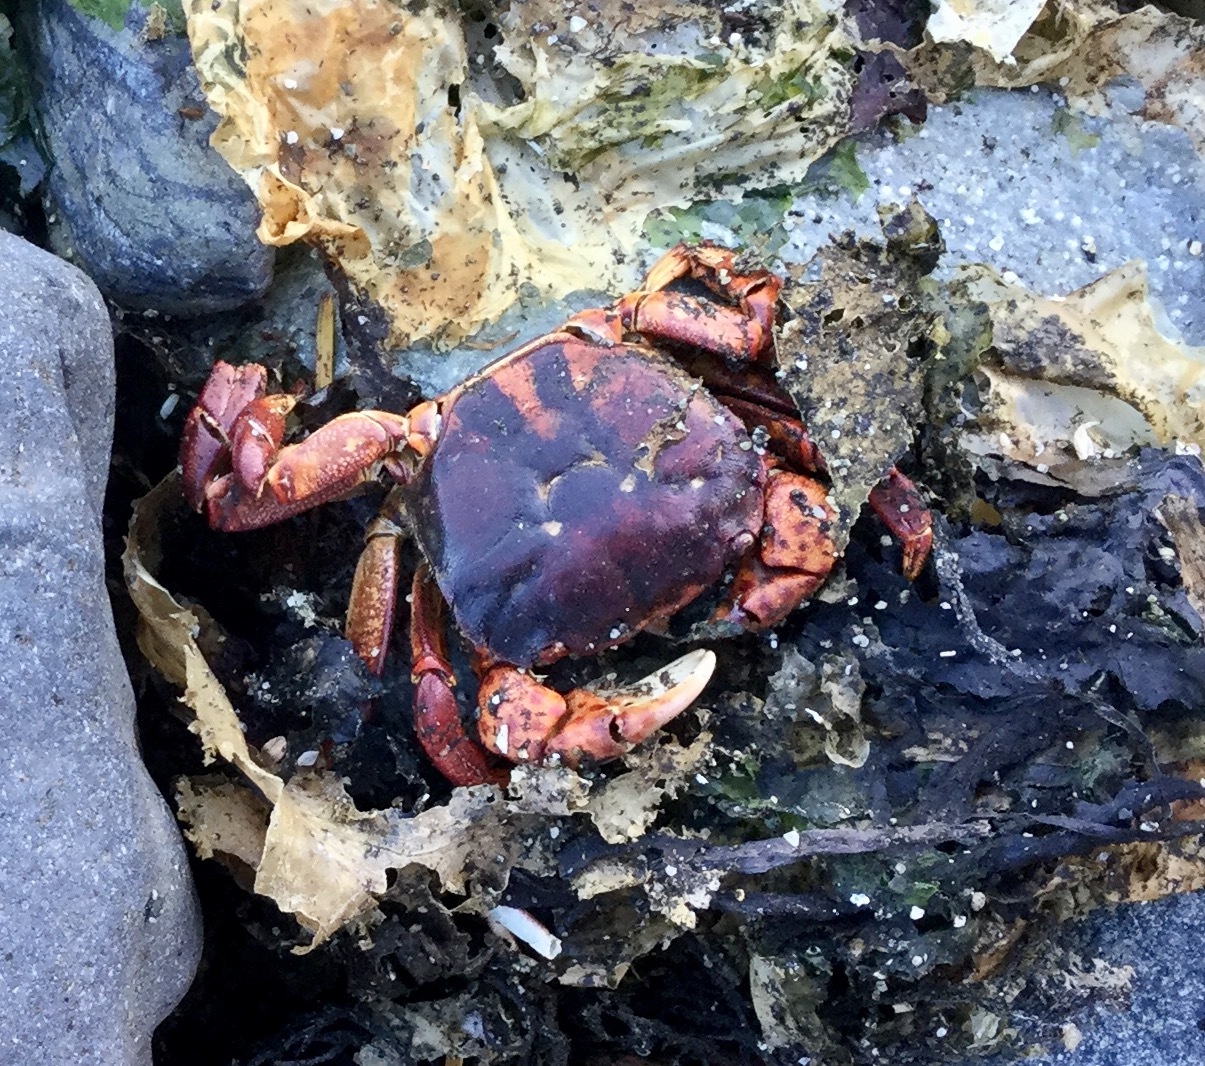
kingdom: Animalia
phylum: Arthropoda
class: Malacostraca
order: Decapoda
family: Varunidae
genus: Hemigrapsus
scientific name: Hemigrapsus nudus
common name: Purple shore crab
